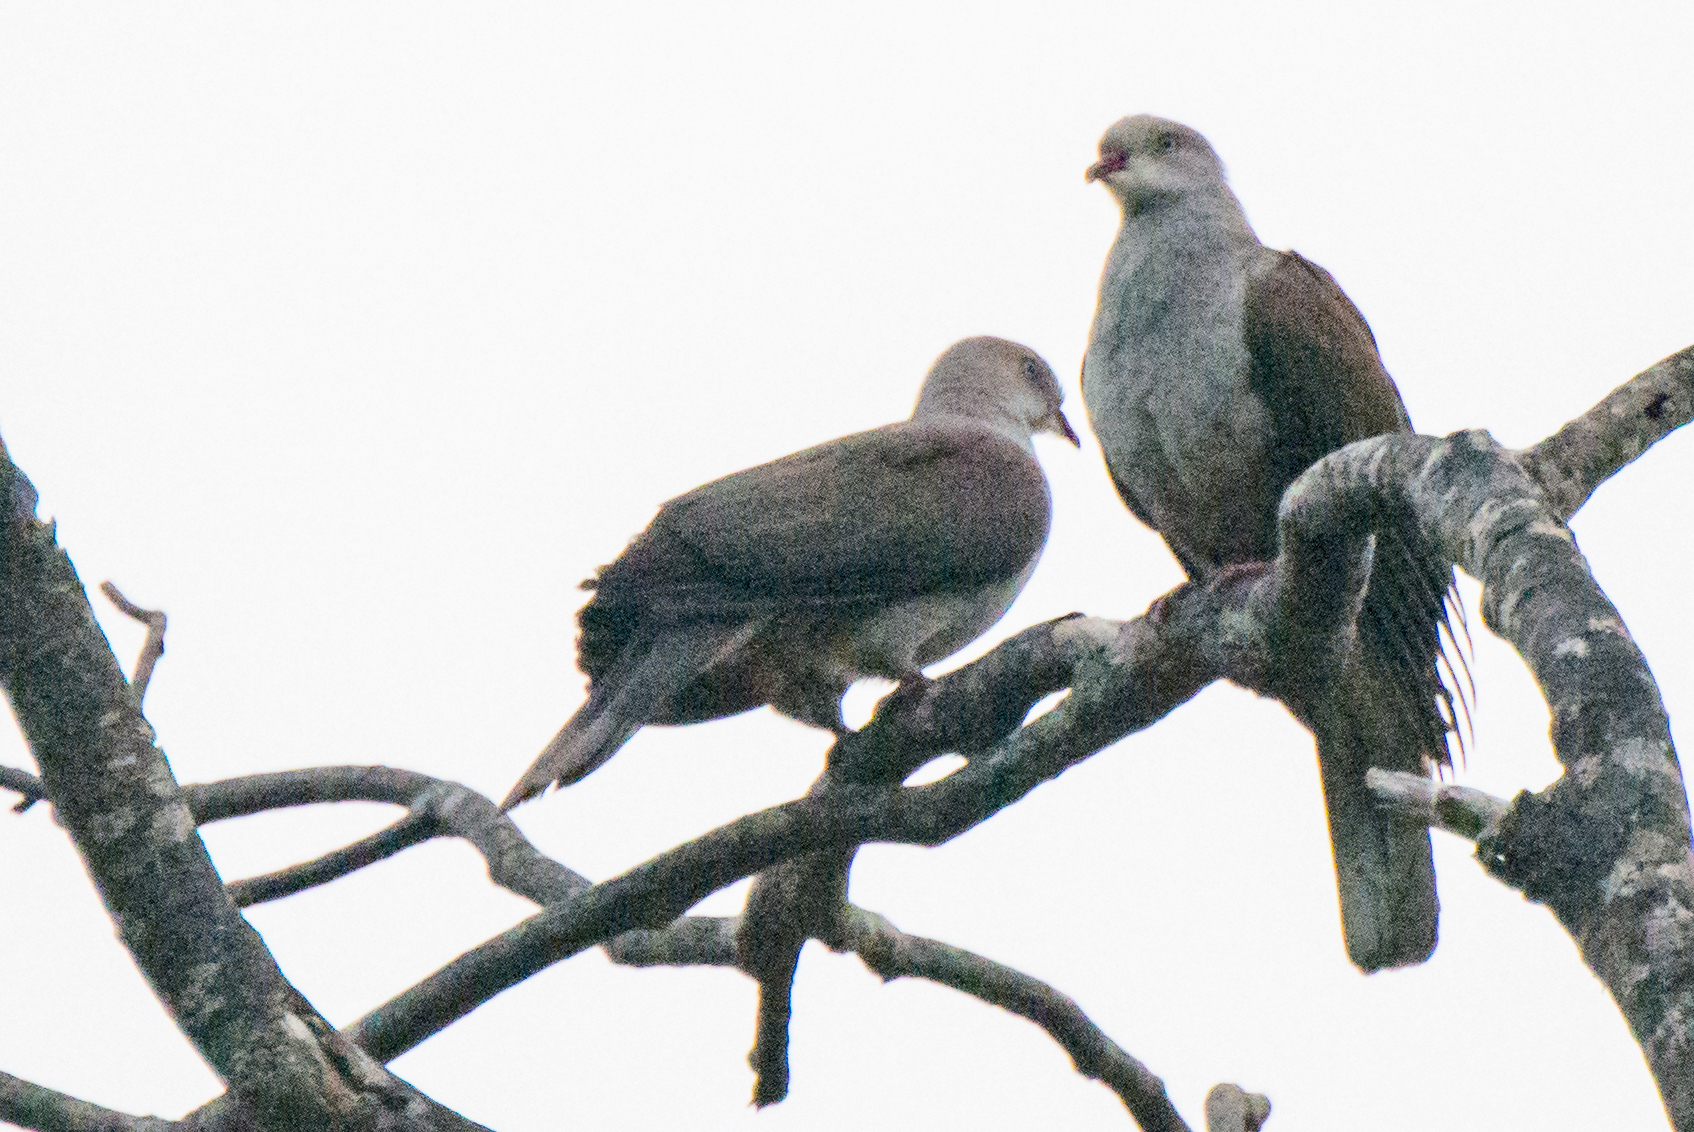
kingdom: Animalia
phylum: Chordata
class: Aves
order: Columbiformes
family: Columbidae
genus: Ducula
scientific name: Ducula badia
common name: Mountain imperial pigeon
